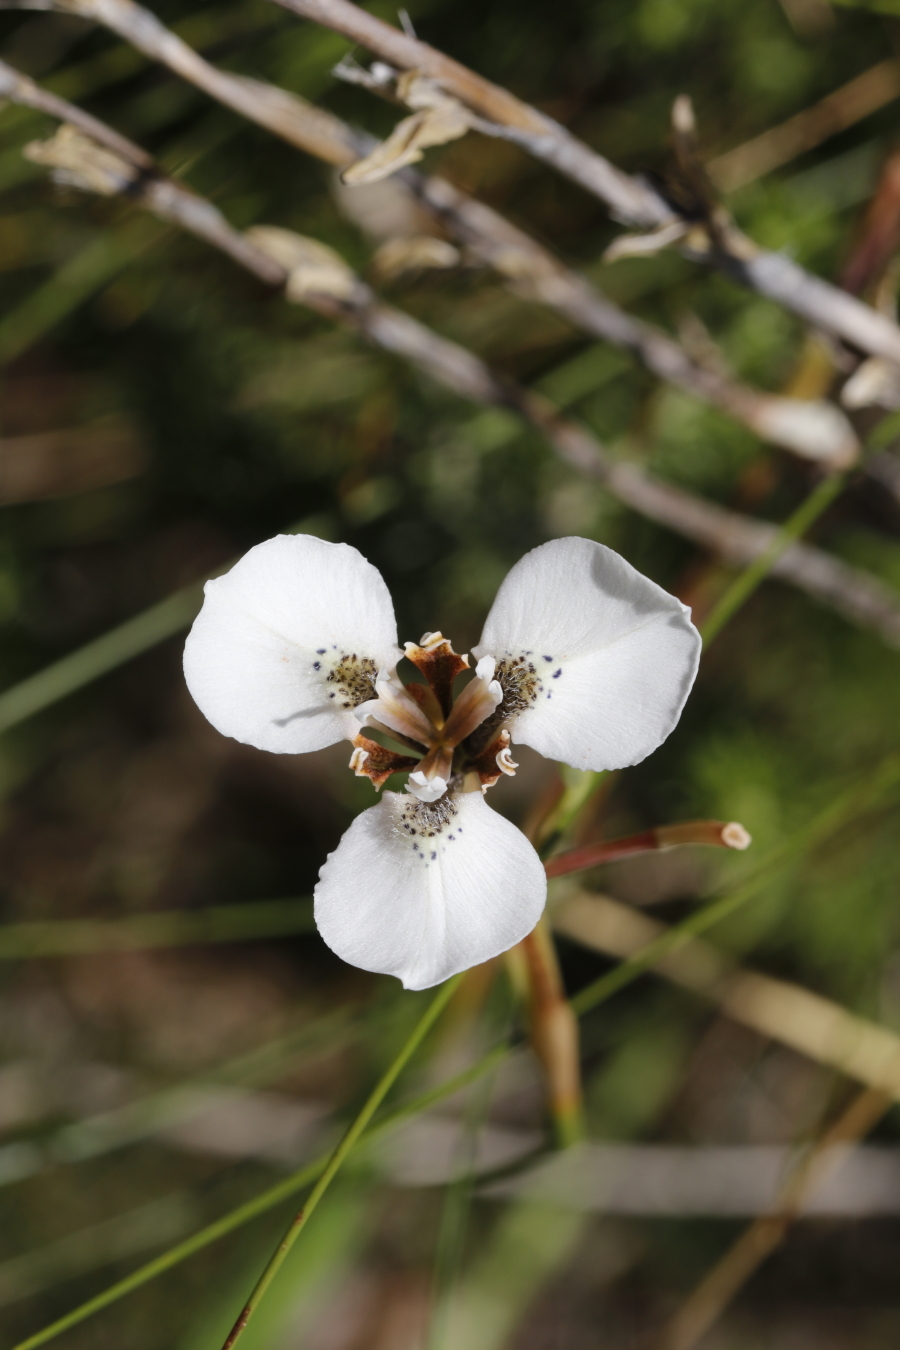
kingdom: Plantae
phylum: Tracheophyta
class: Liliopsida
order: Asparagales
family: Iridaceae
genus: Moraea
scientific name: Moraea tricuspidata
